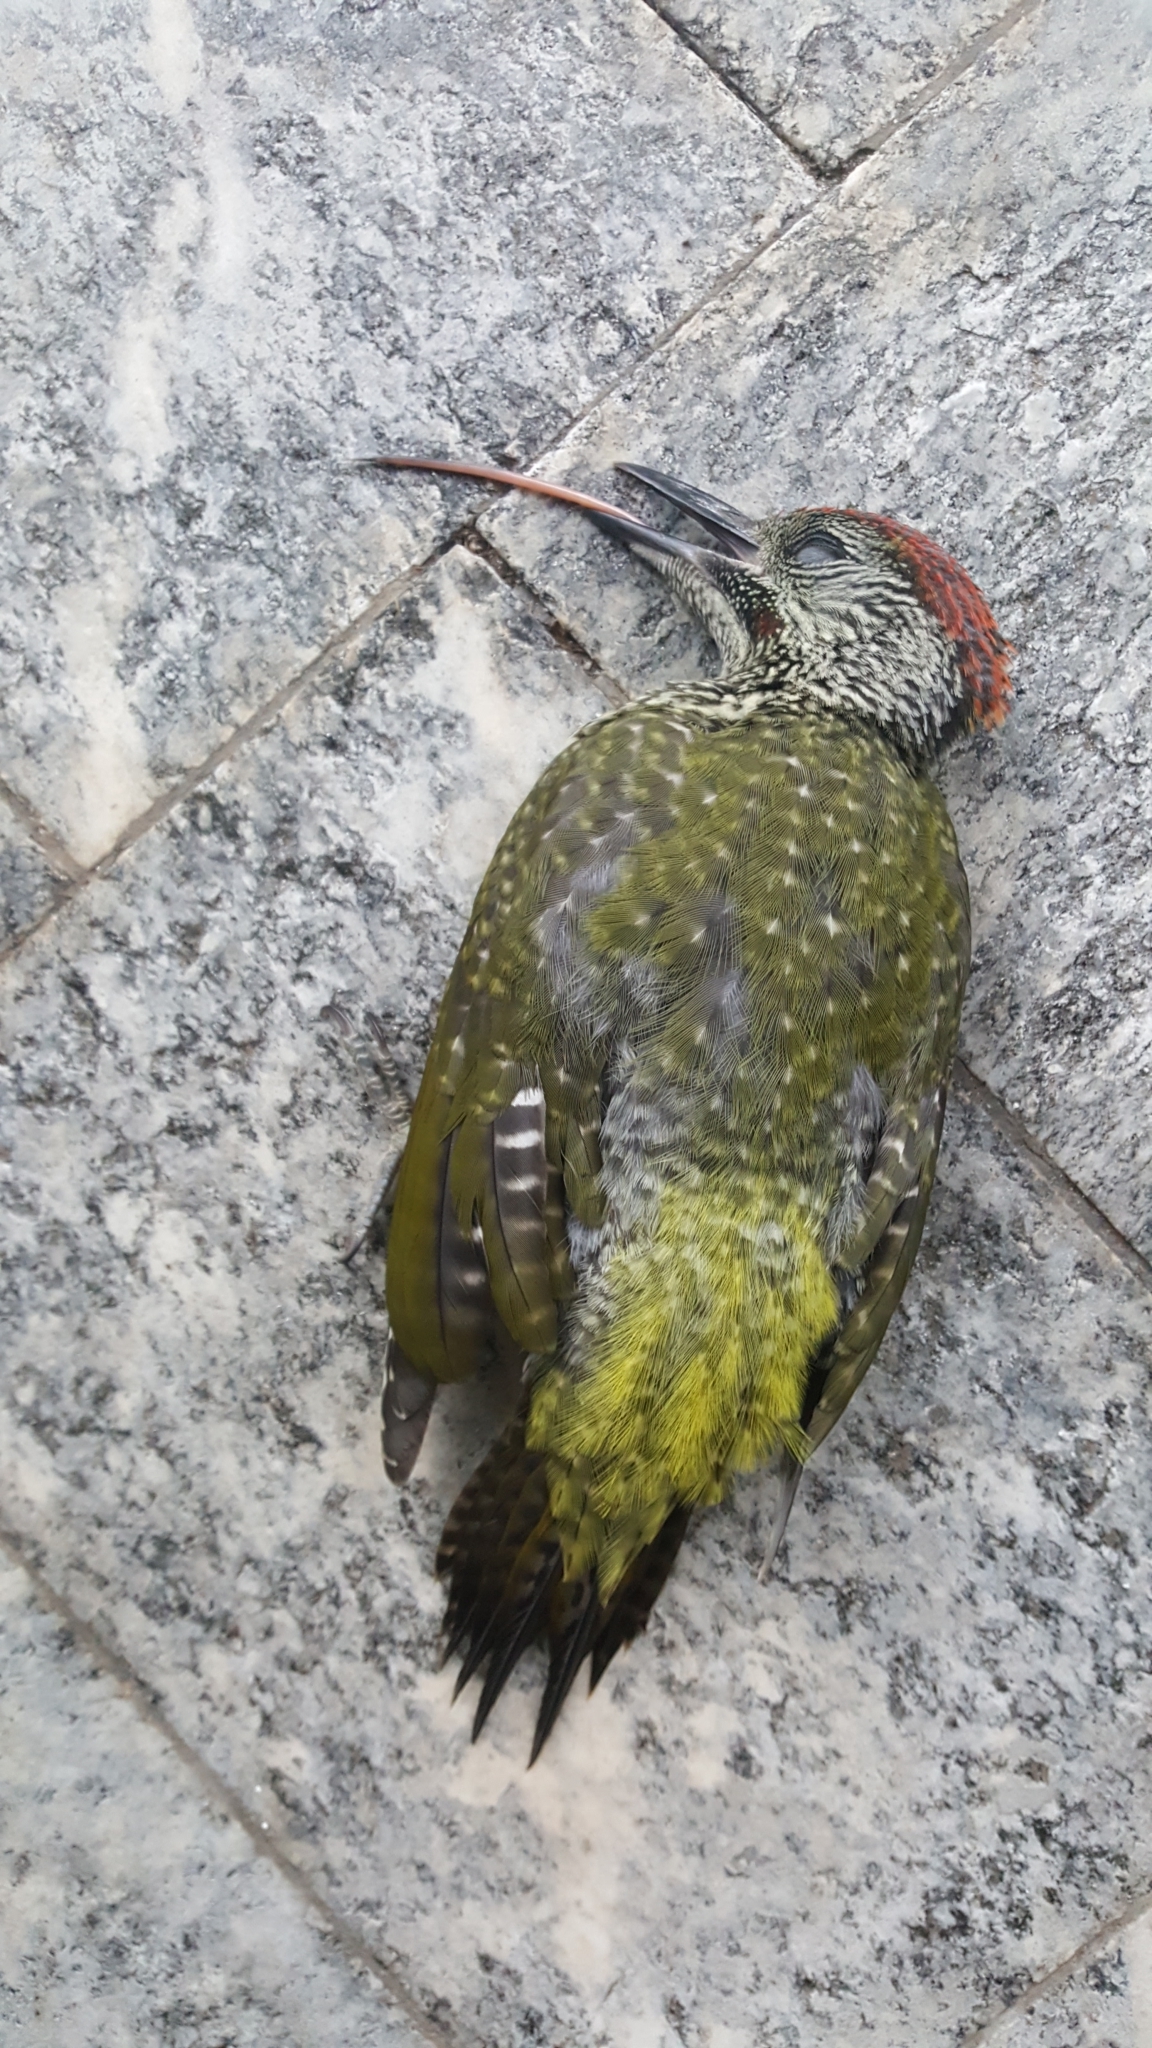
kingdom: Animalia
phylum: Chordata
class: Aves
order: Piciformes
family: Picidae
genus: Picus
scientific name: Picus viridis
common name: European green woodpecker
